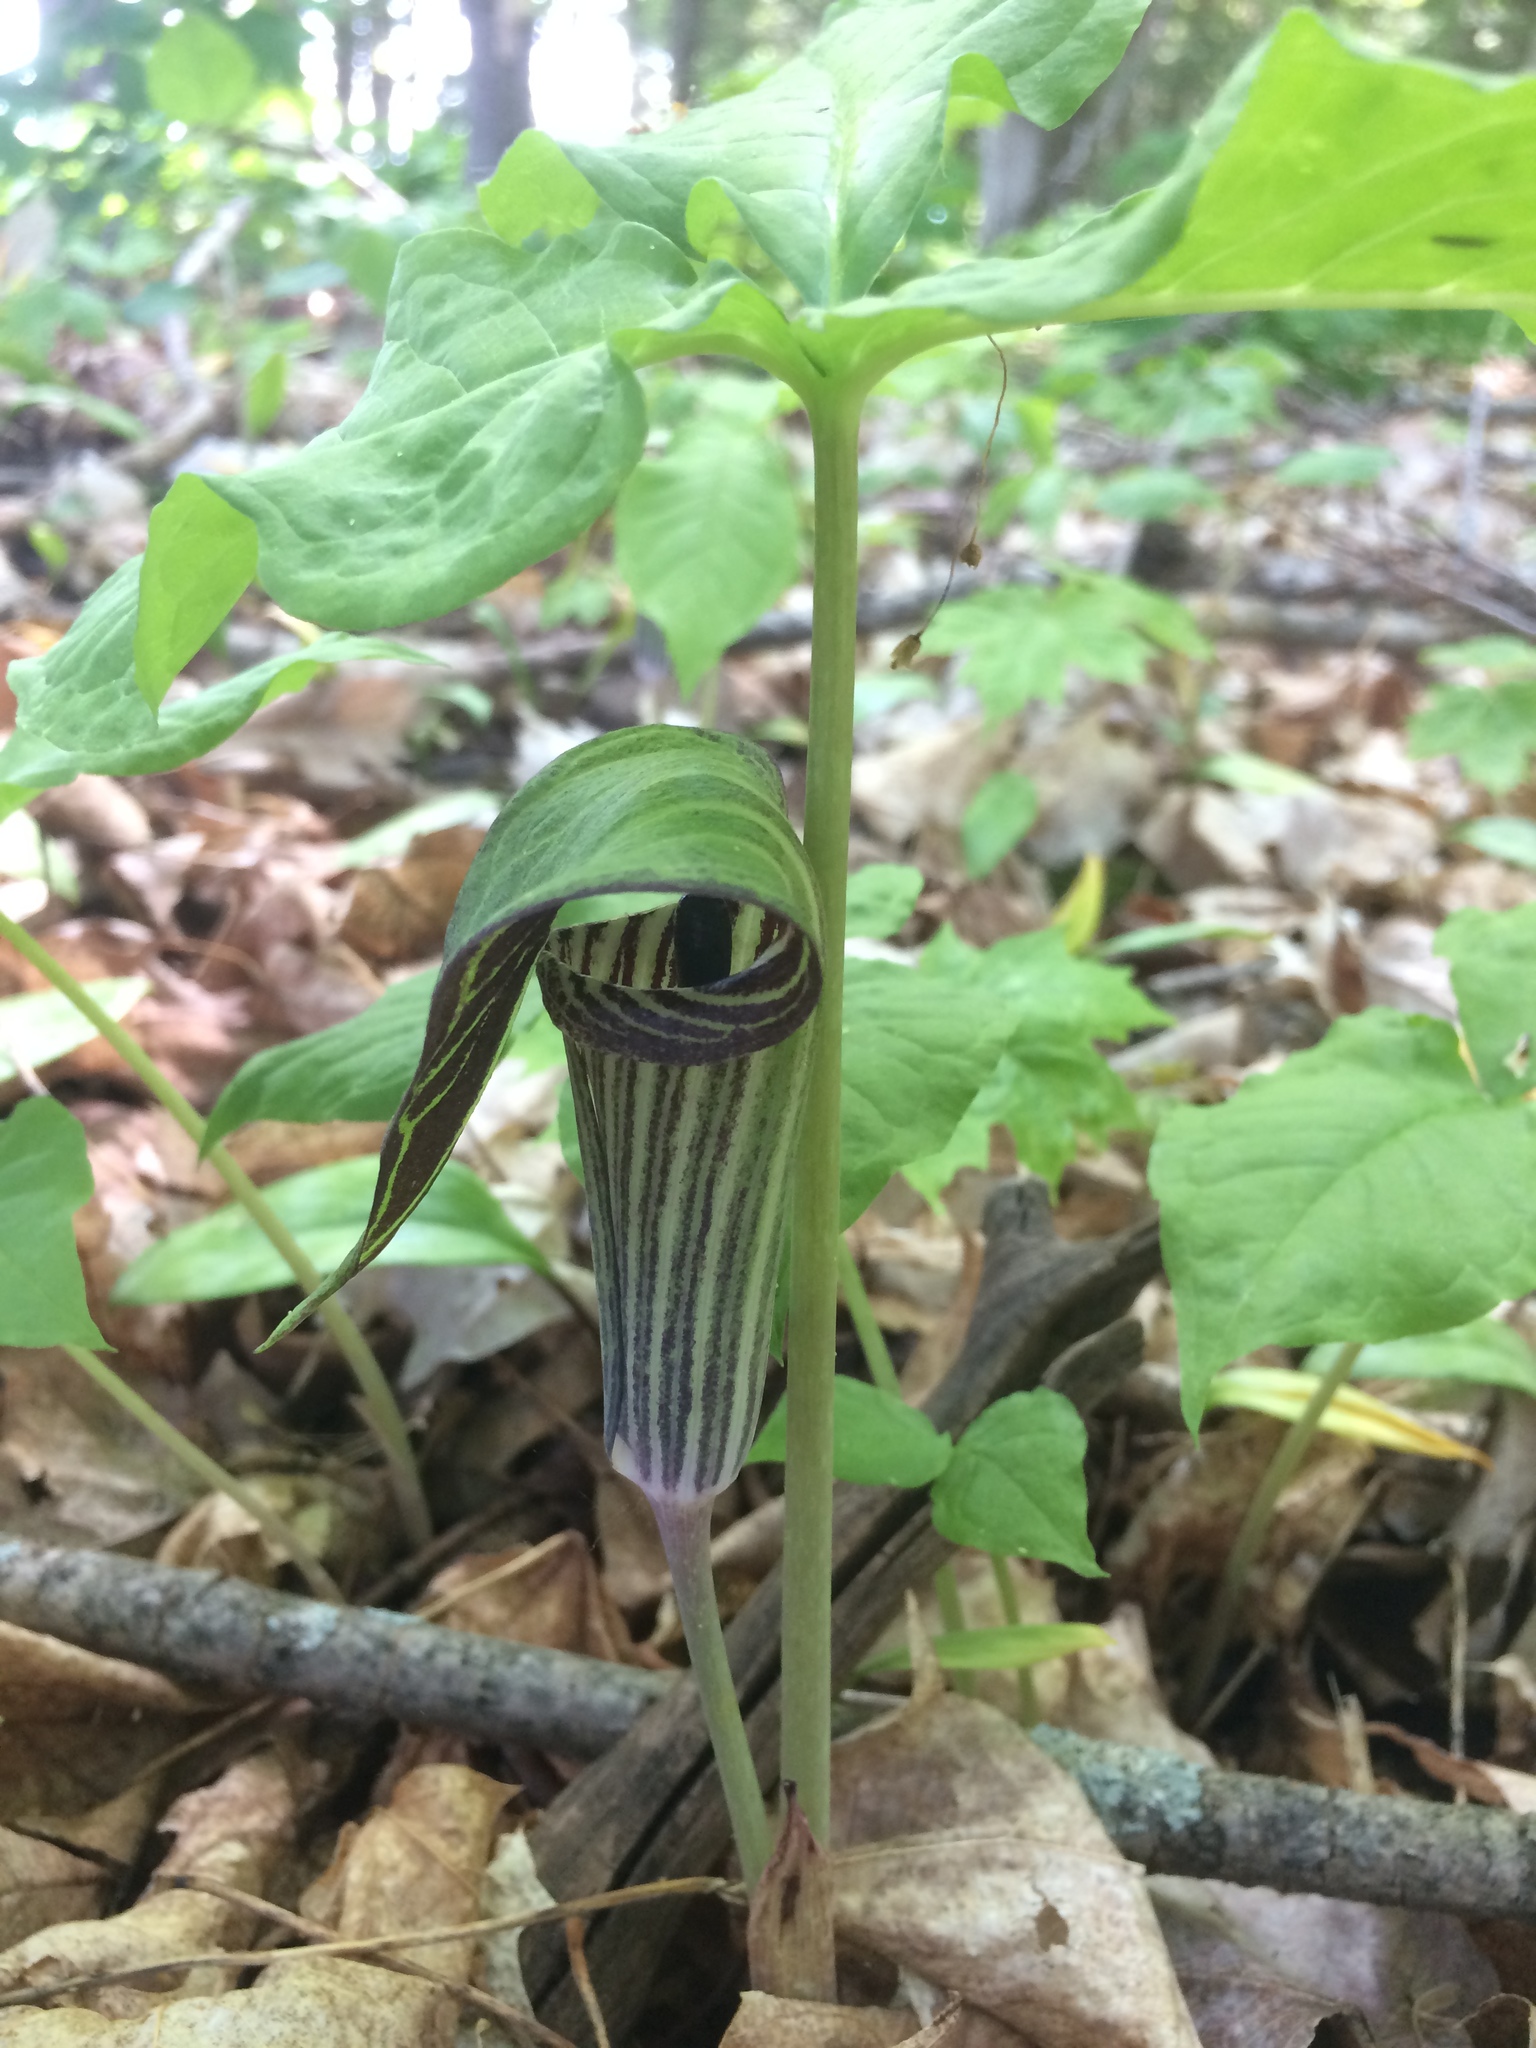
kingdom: Plantae
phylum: Tracheophyta
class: Liliopsida
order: Alismatales
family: Araceae
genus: Arisaema
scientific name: Arisaema triphyllum
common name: Jack-in-the-pulpit
